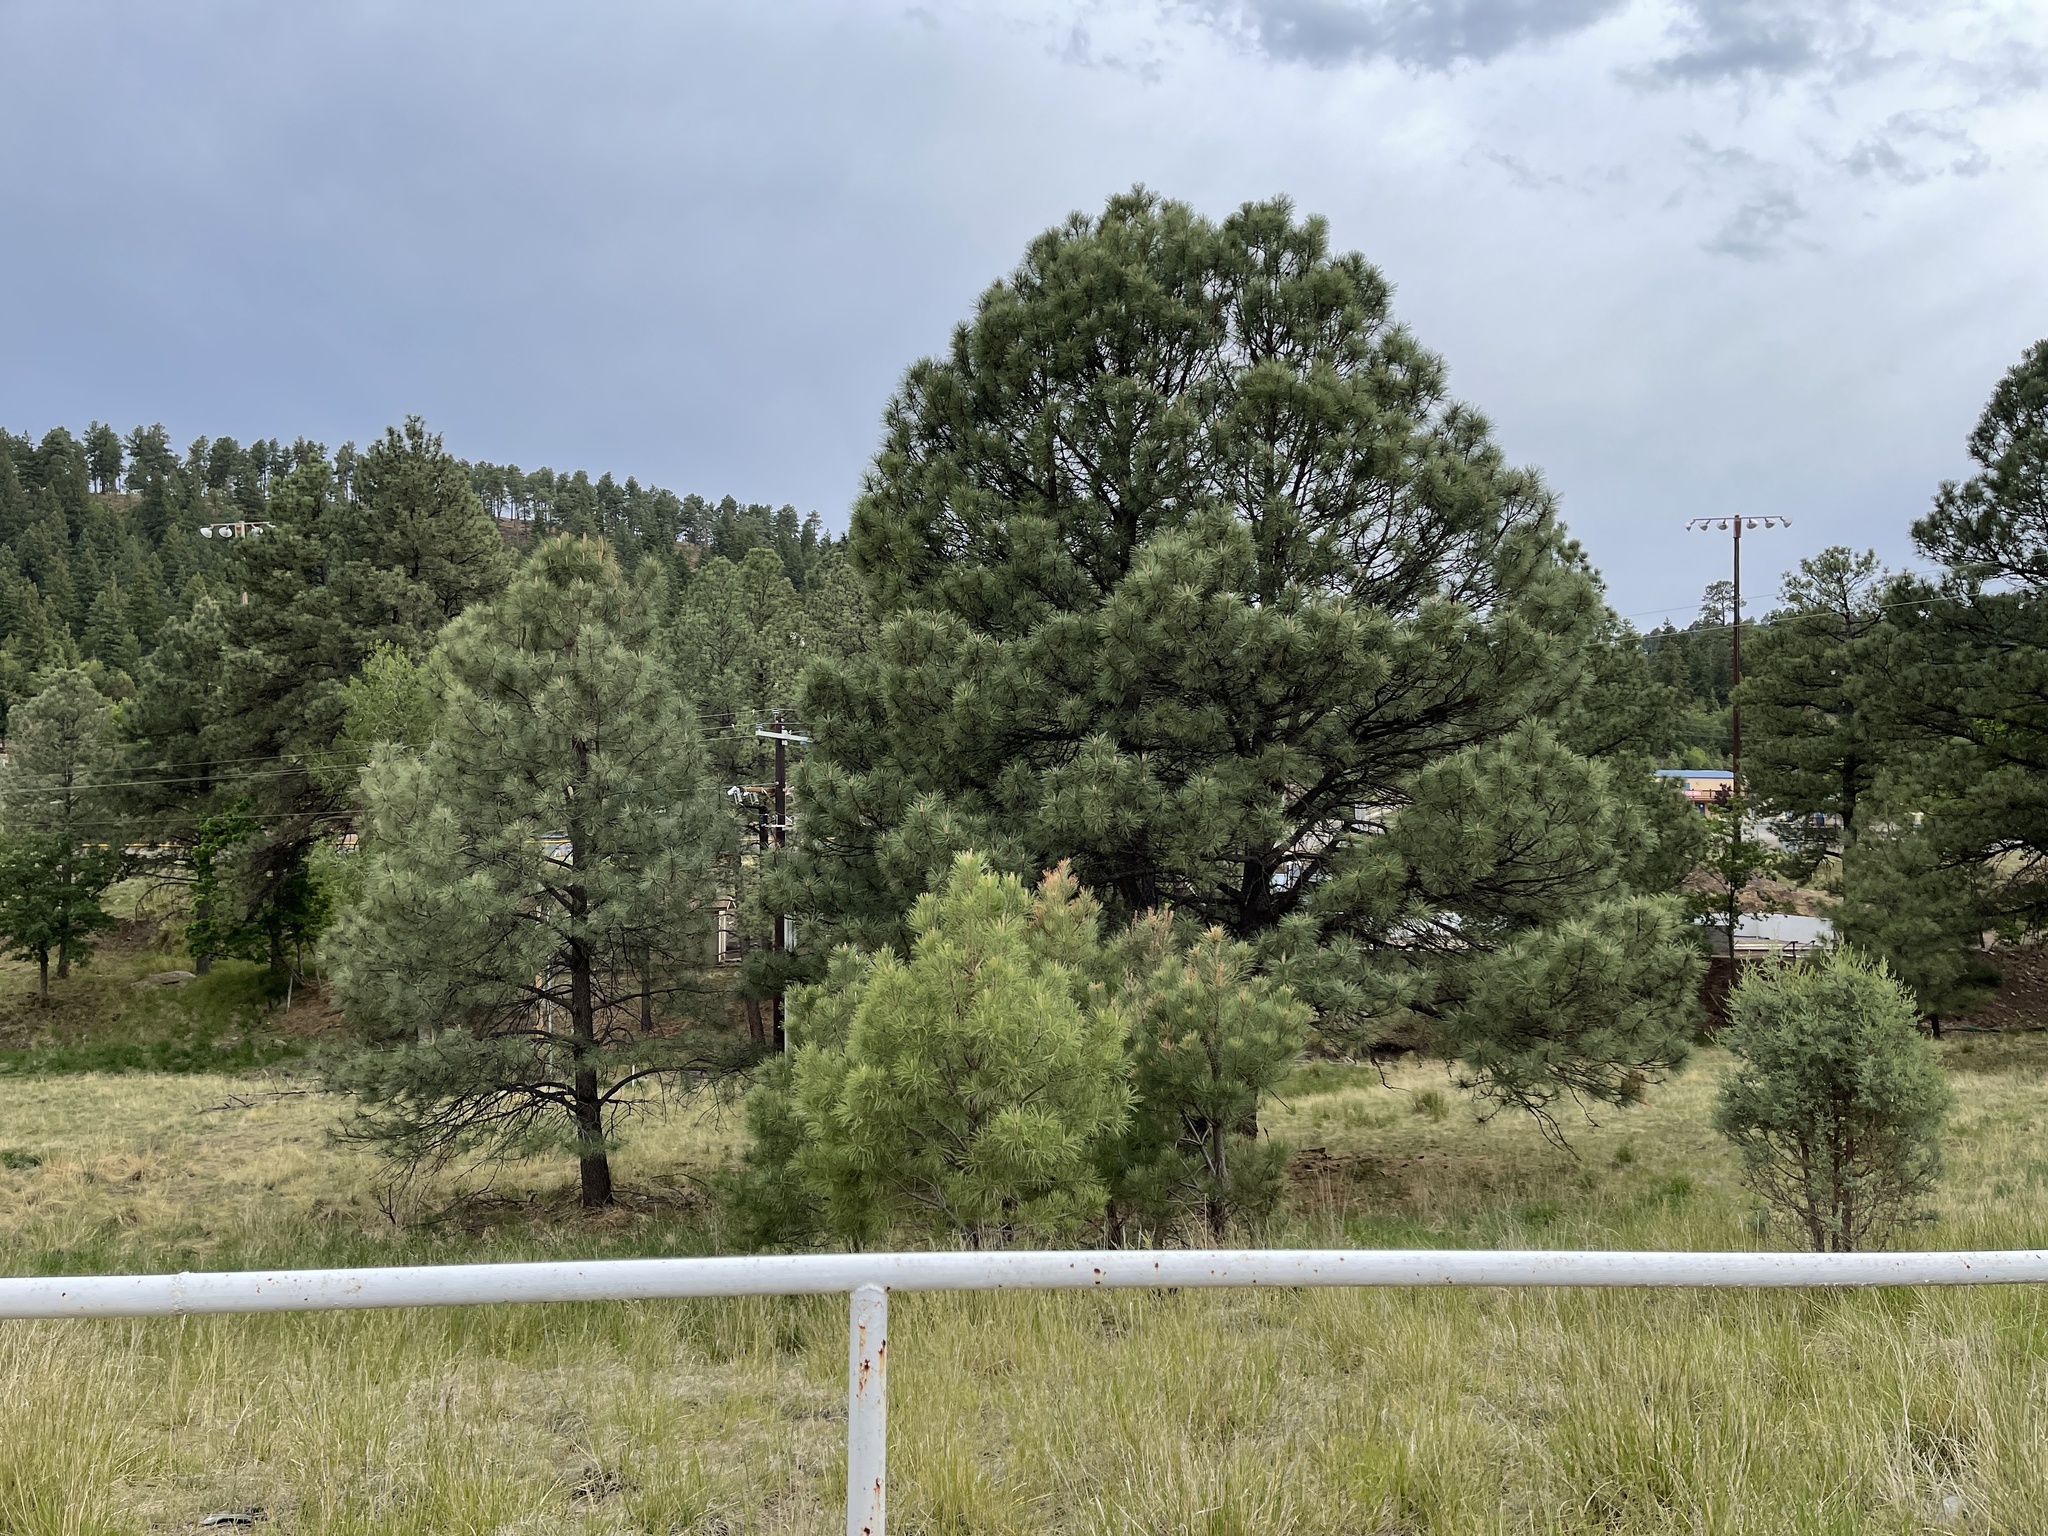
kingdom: Plantae
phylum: Tracheophyta
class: Pinopsida
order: Pinales
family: Pinaceae
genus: Pinus
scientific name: Pinus ponderosa
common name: Western yellow-pine
